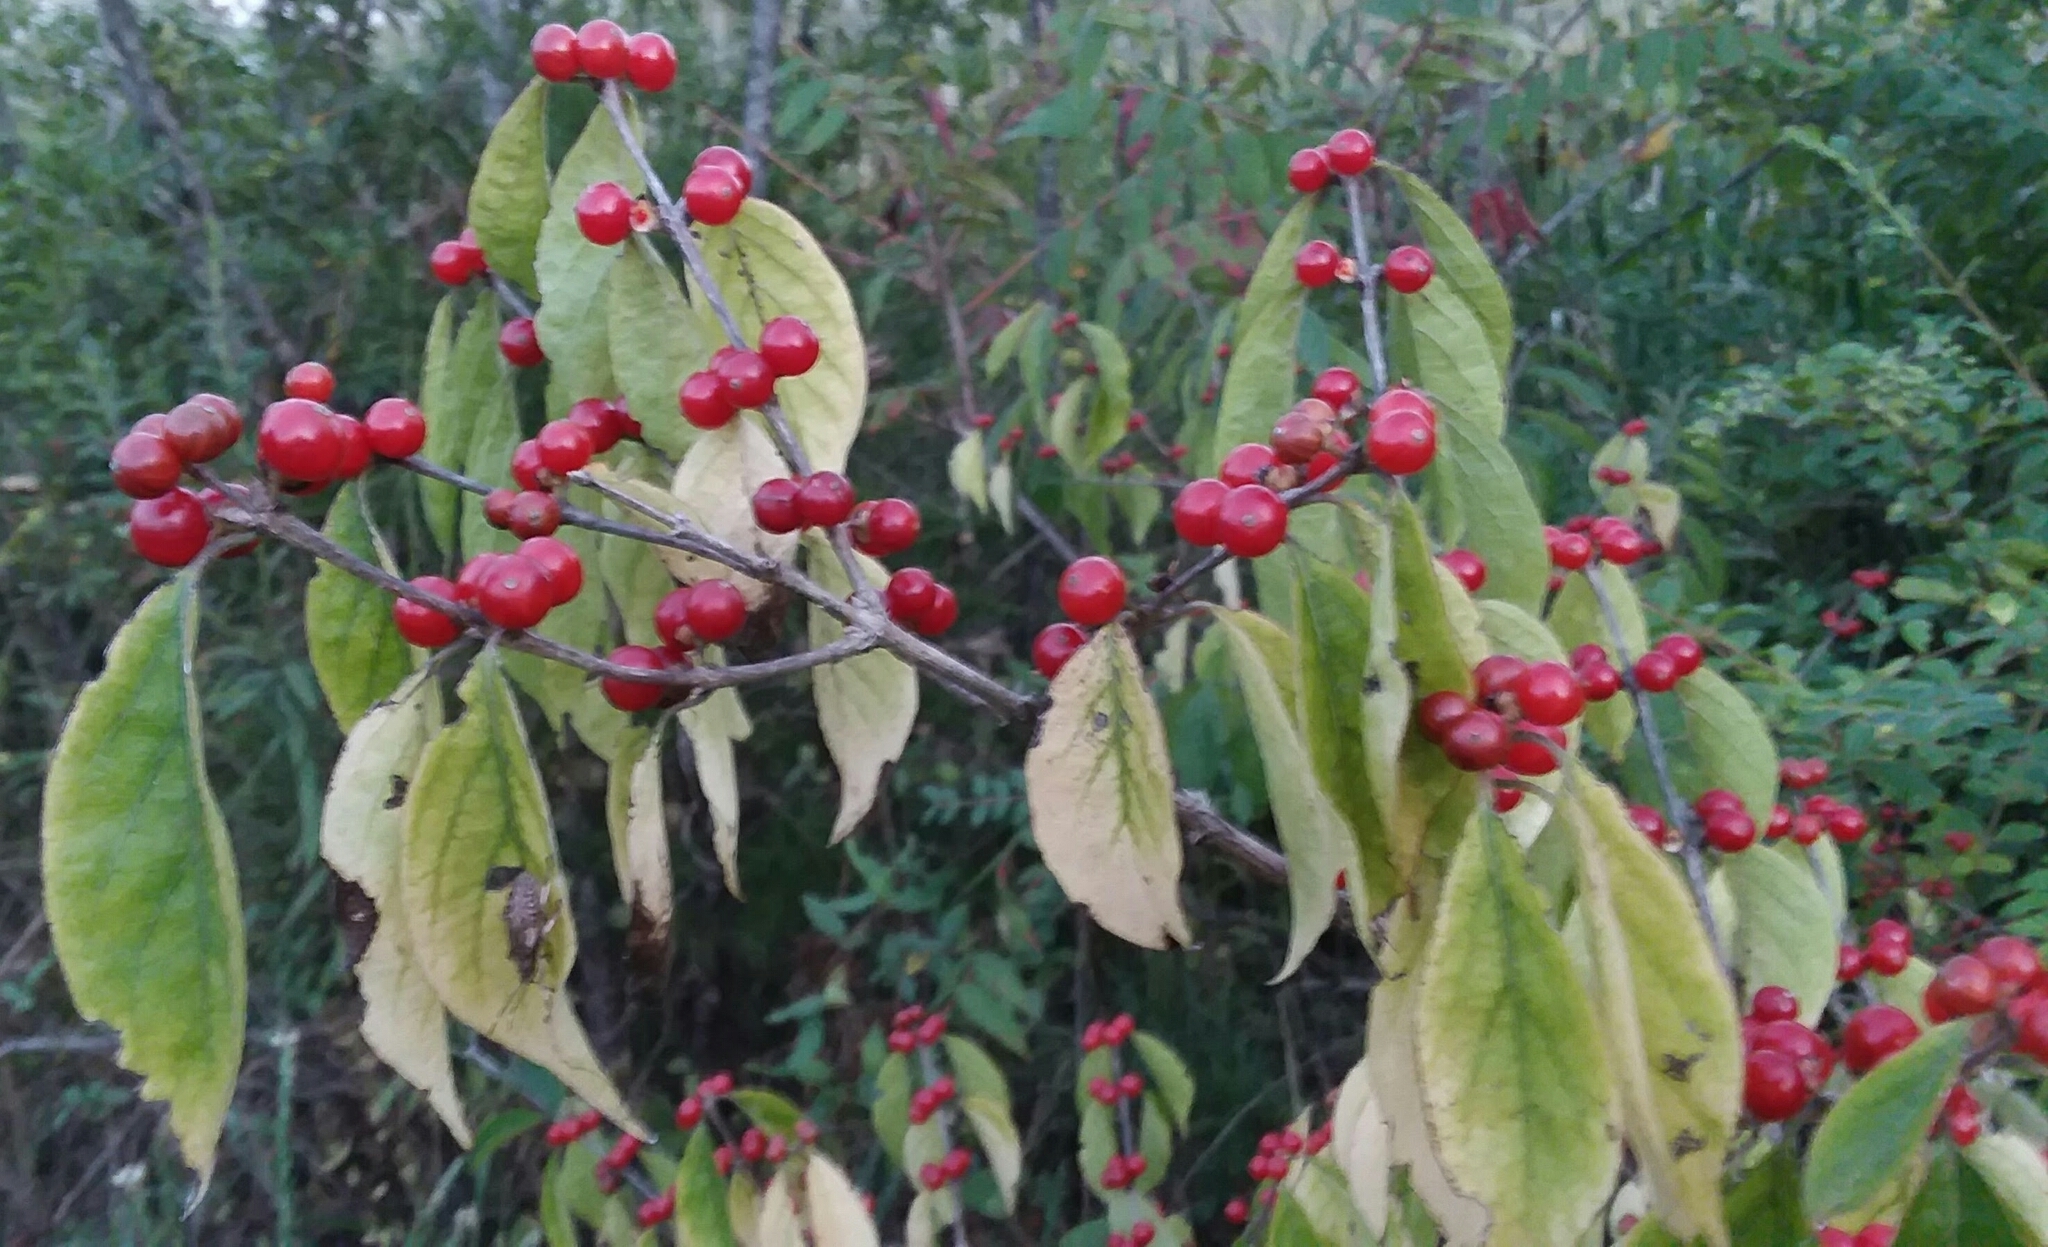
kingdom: Plantae
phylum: Tracheophyta
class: Magnoliopsida
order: Dipsacales
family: Caprifoliaceae
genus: Lonicera
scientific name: Lonicera maackii
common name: Amur honeysuckle
